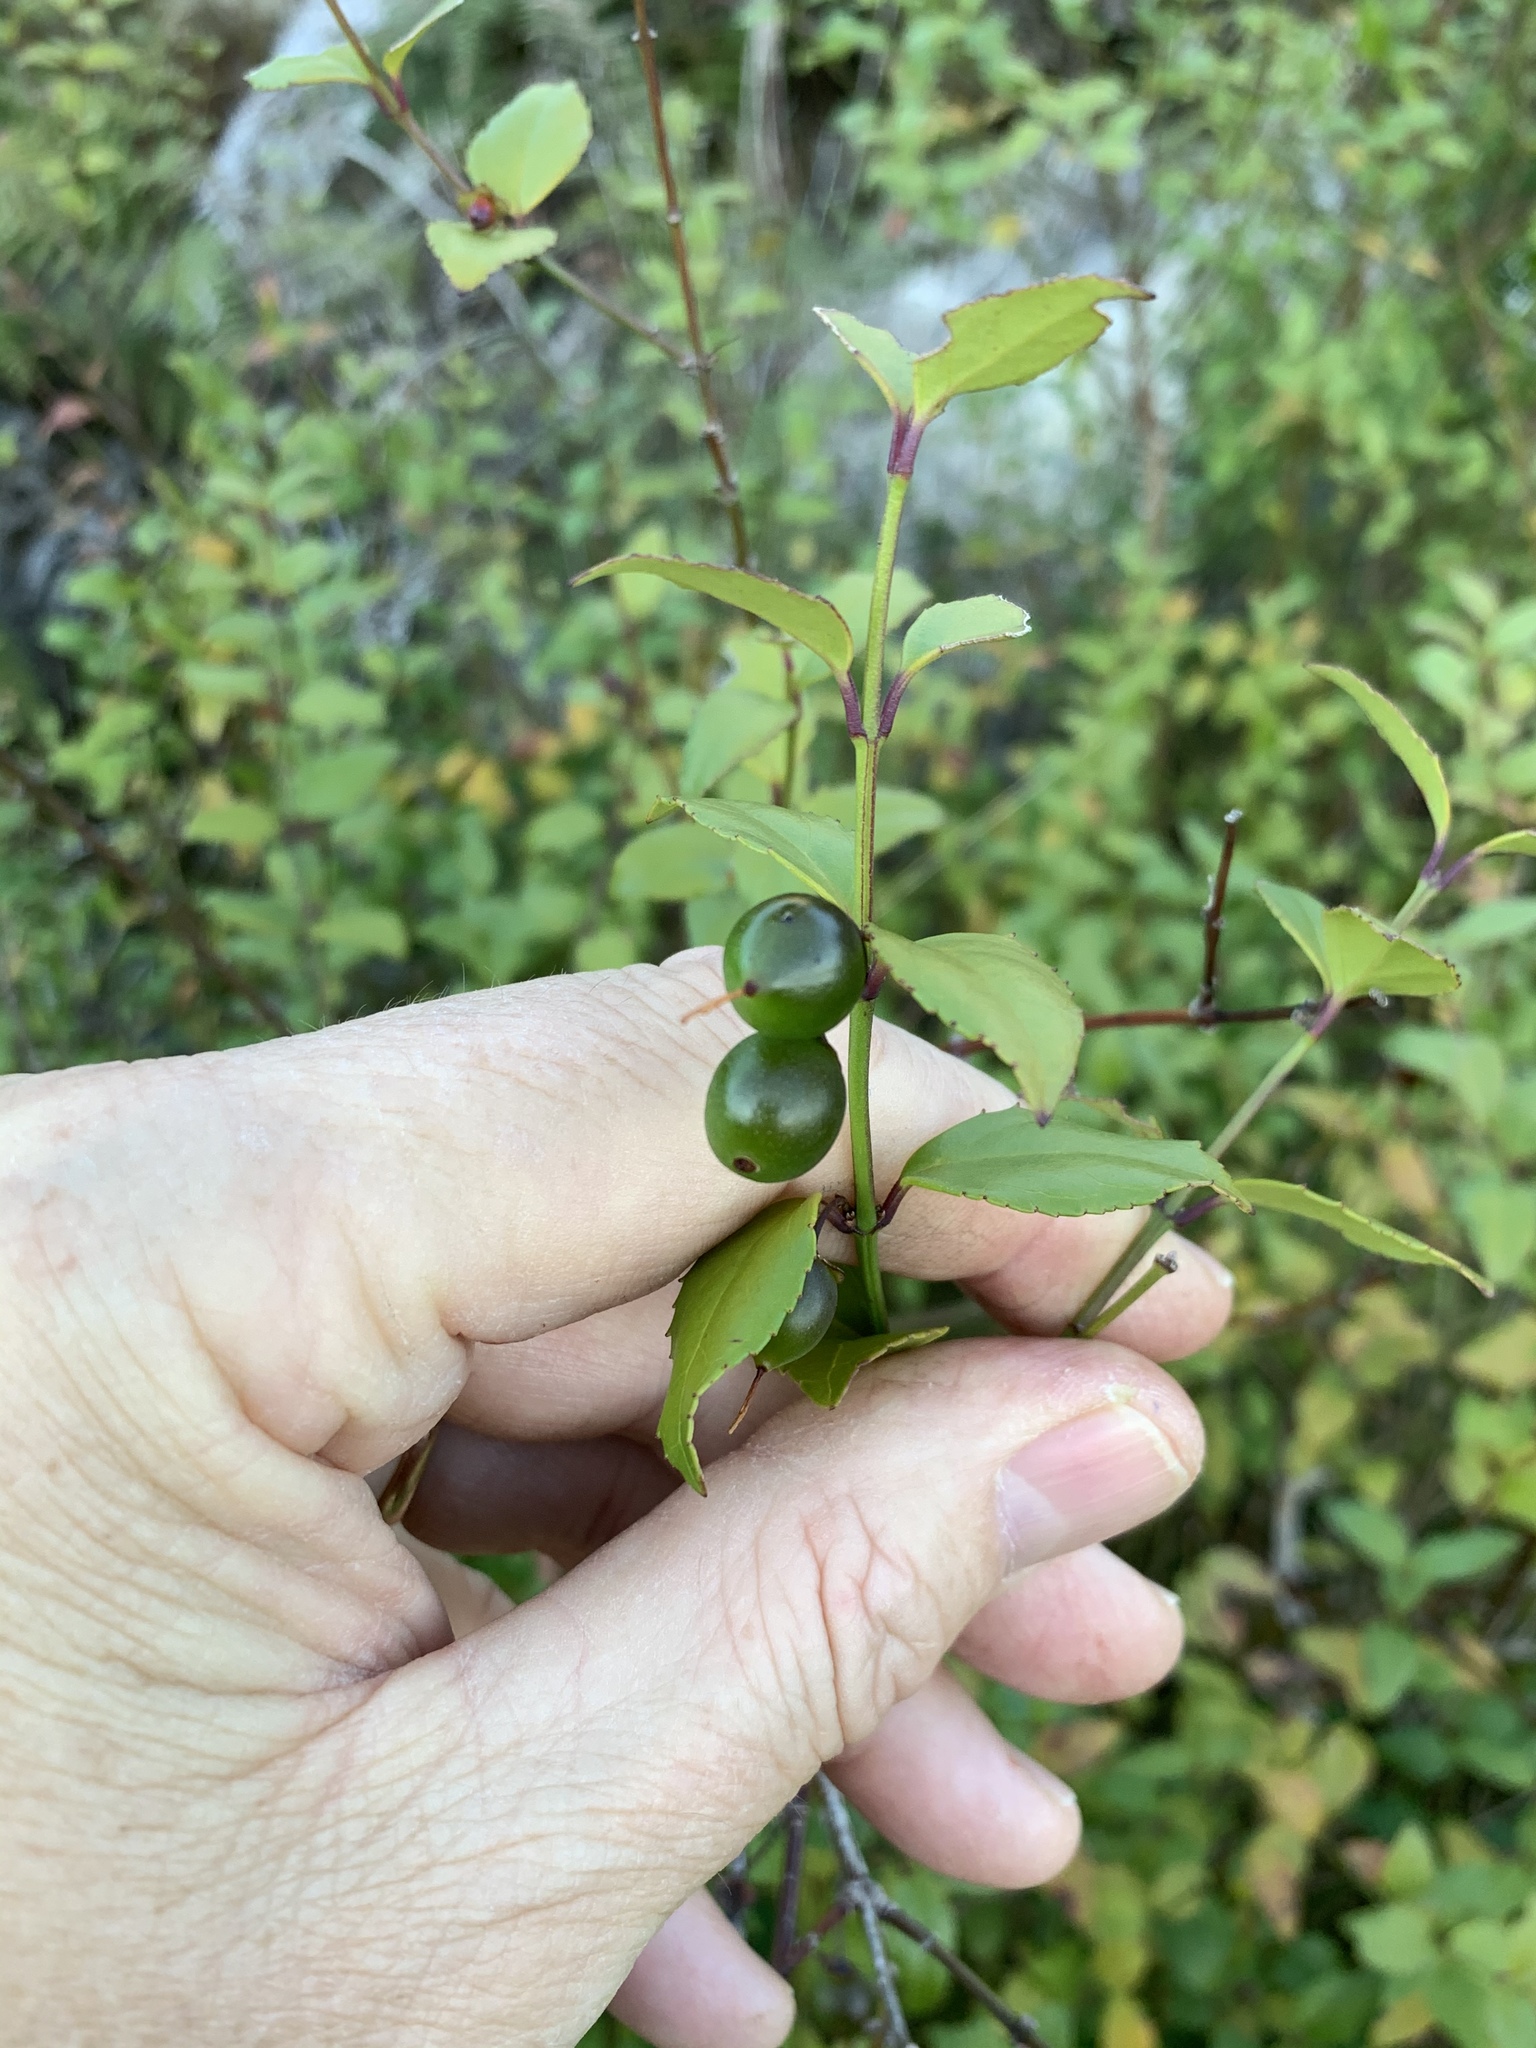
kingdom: Plantae
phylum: Tracheophyta
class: Magnoliopsida
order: Lamiales
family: Stilbaceae
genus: Halleria
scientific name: Halleria elliptica
